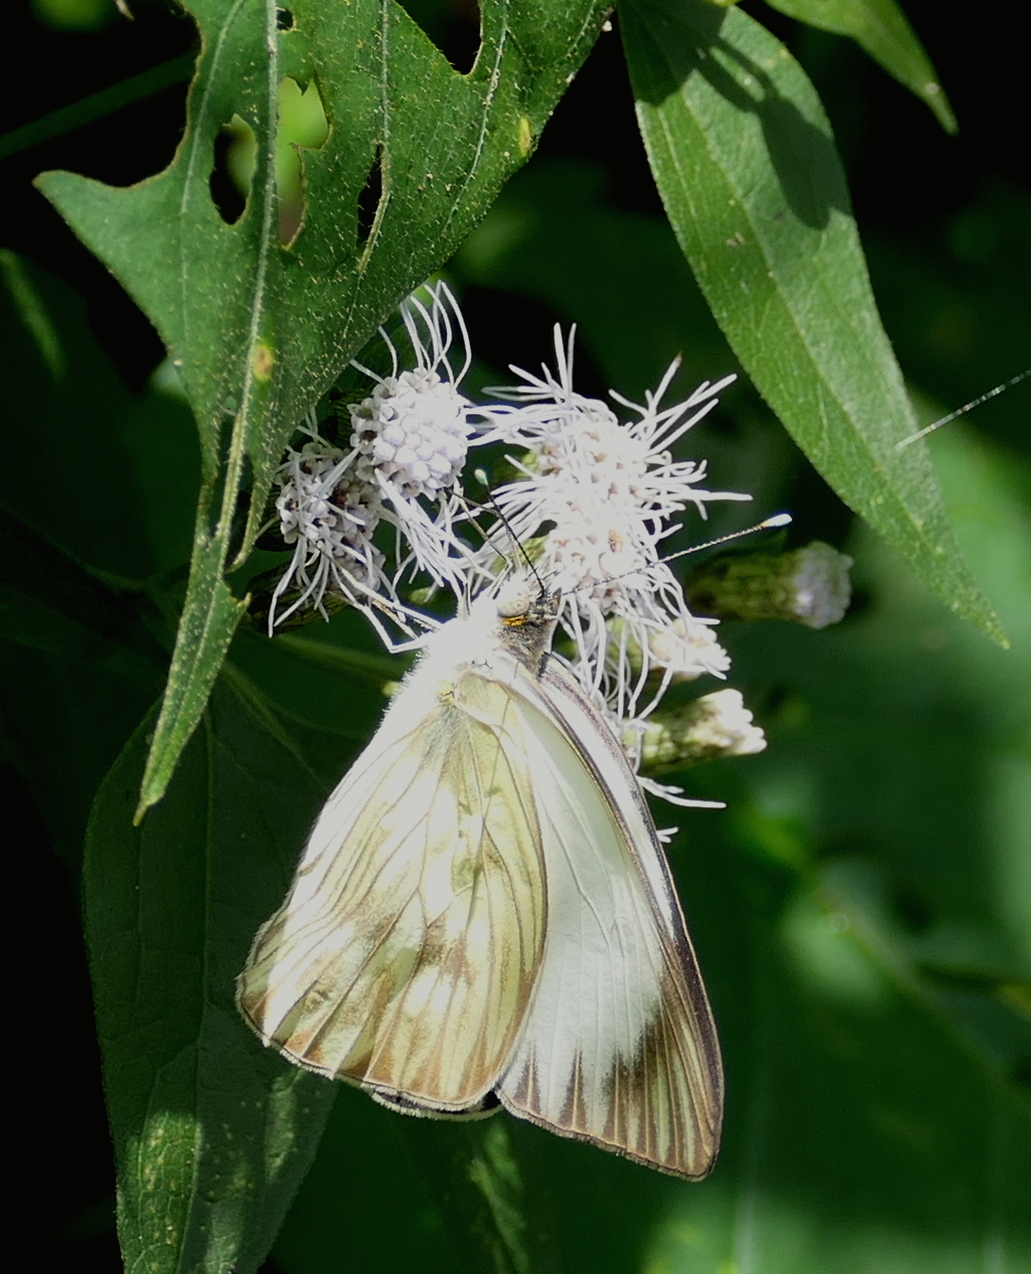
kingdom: Animalia
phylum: Arthropoda
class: Insecta
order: Lepidoptera
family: Pieridae
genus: Ascia
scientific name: Ascia monuste
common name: Great southern white
